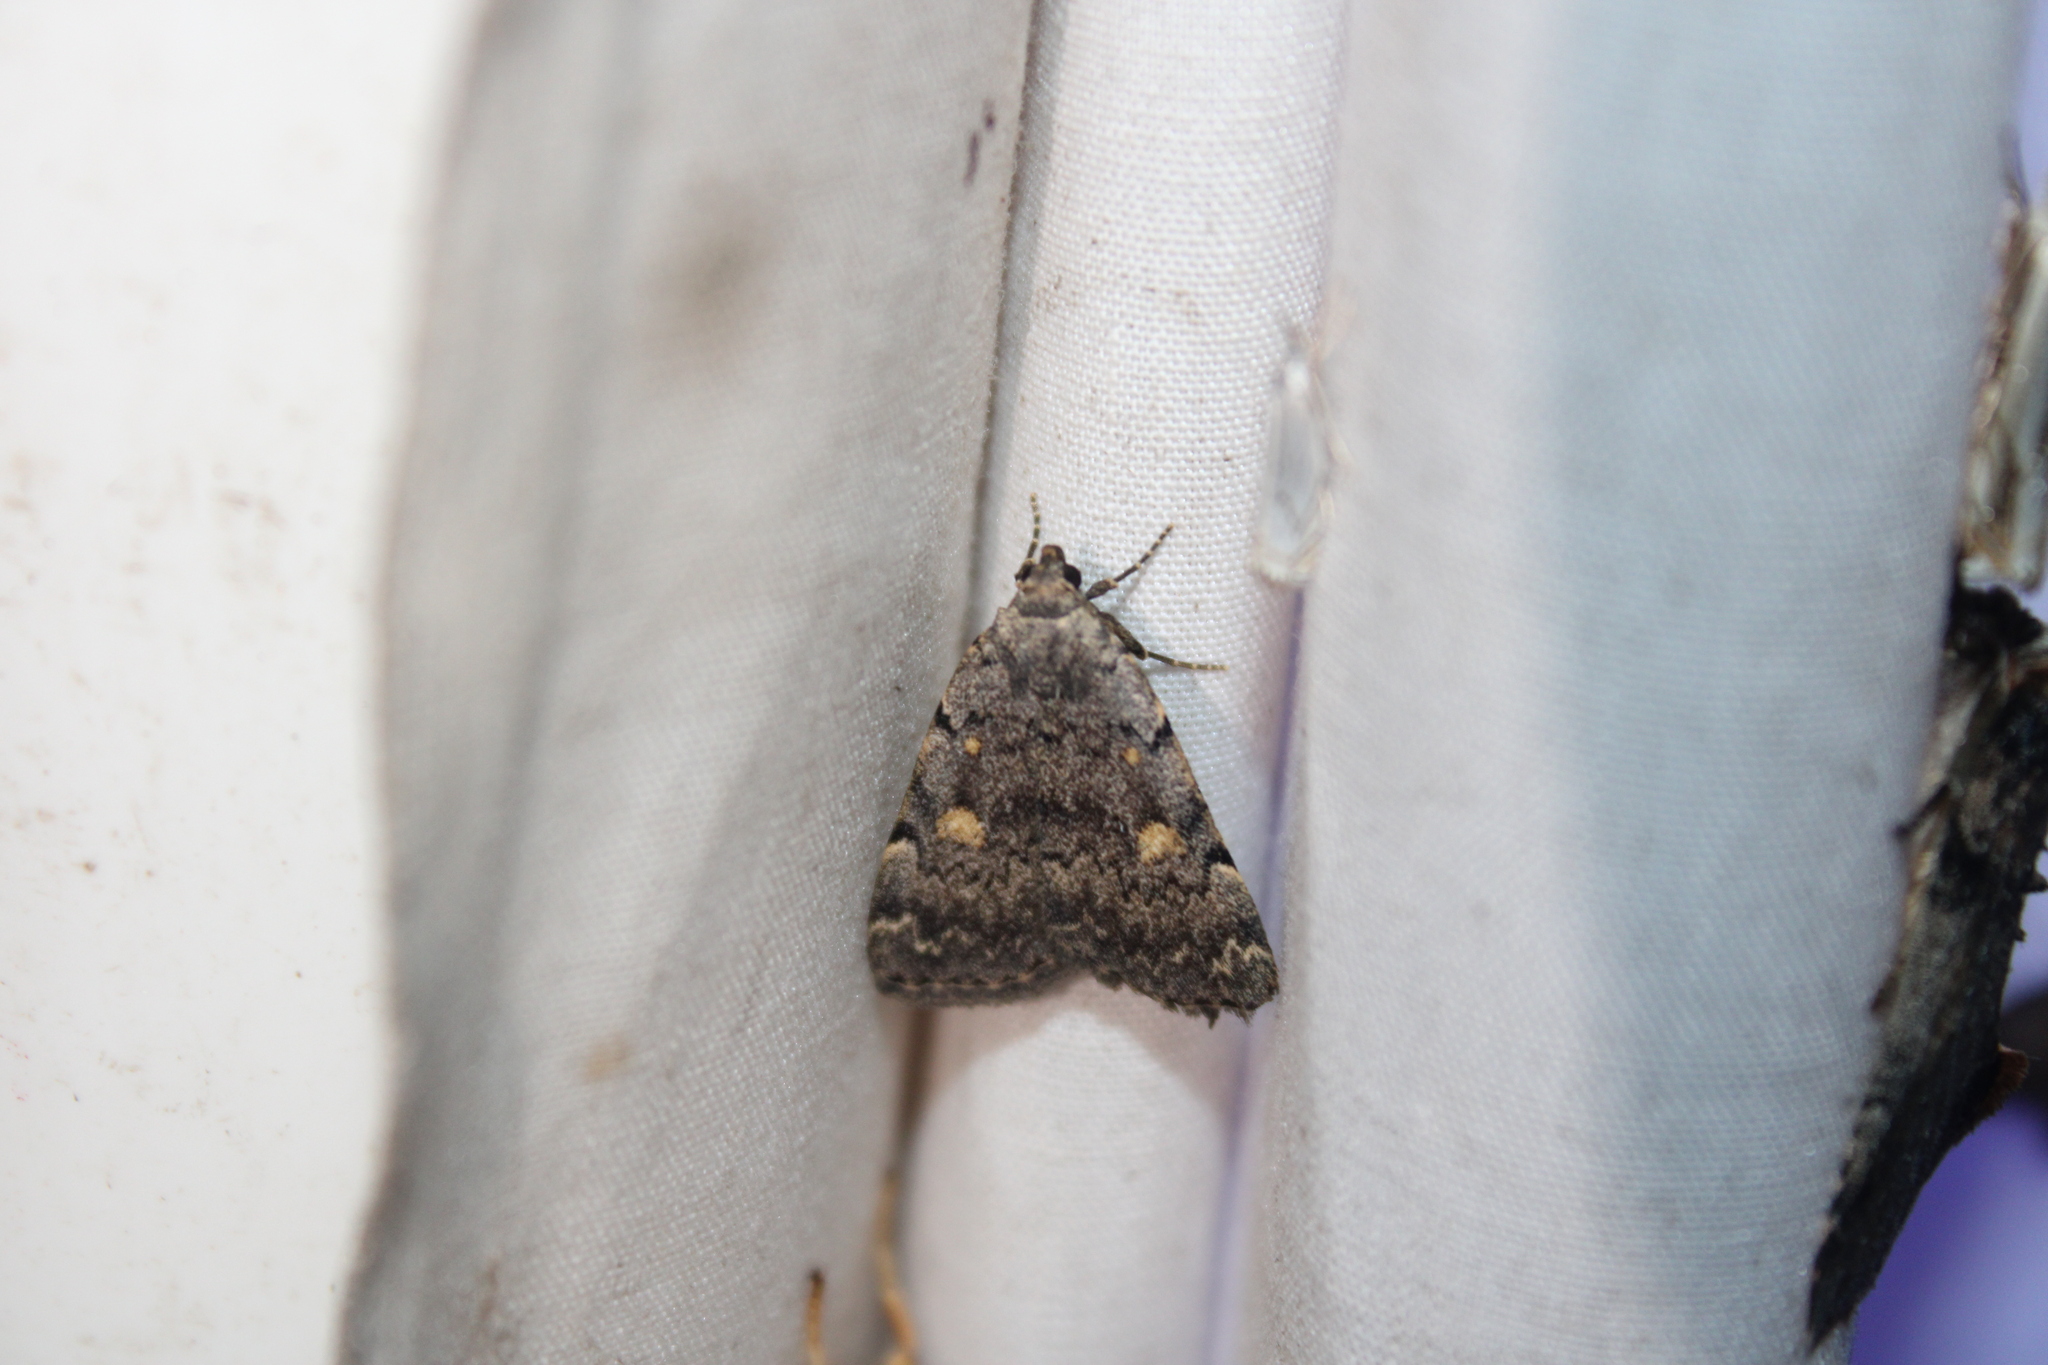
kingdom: Animalia
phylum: Arthropoda
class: Insecta
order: Lepidoptera
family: Erebidae
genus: Idia
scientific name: Idia aemula
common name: Common idia moth
